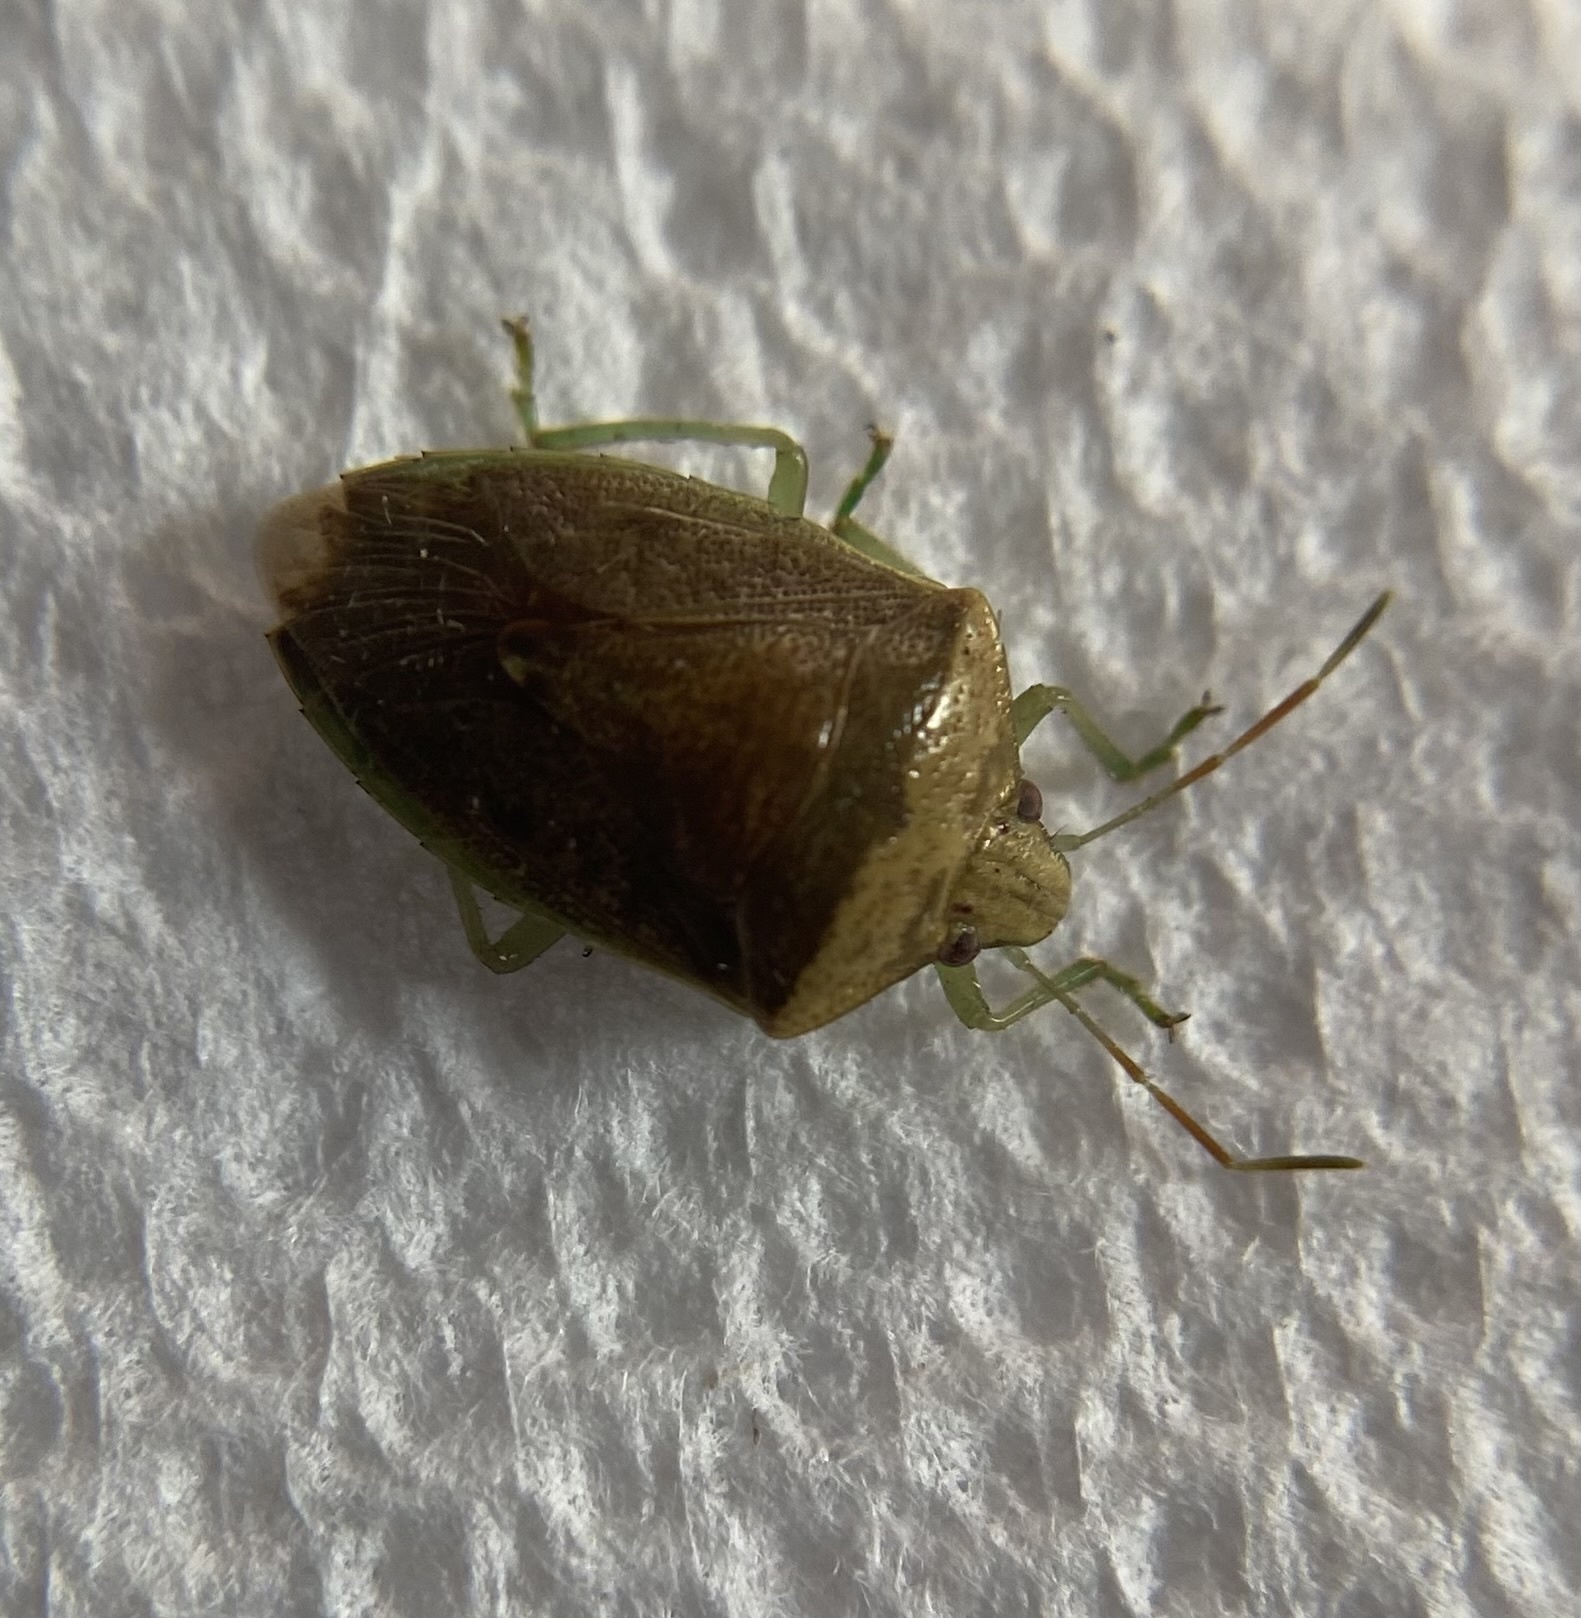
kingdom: Animalia
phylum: Arthropoda
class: Insecta
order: Hemiptera
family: Pentatomidae
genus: Banasa
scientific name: Banasa calva
